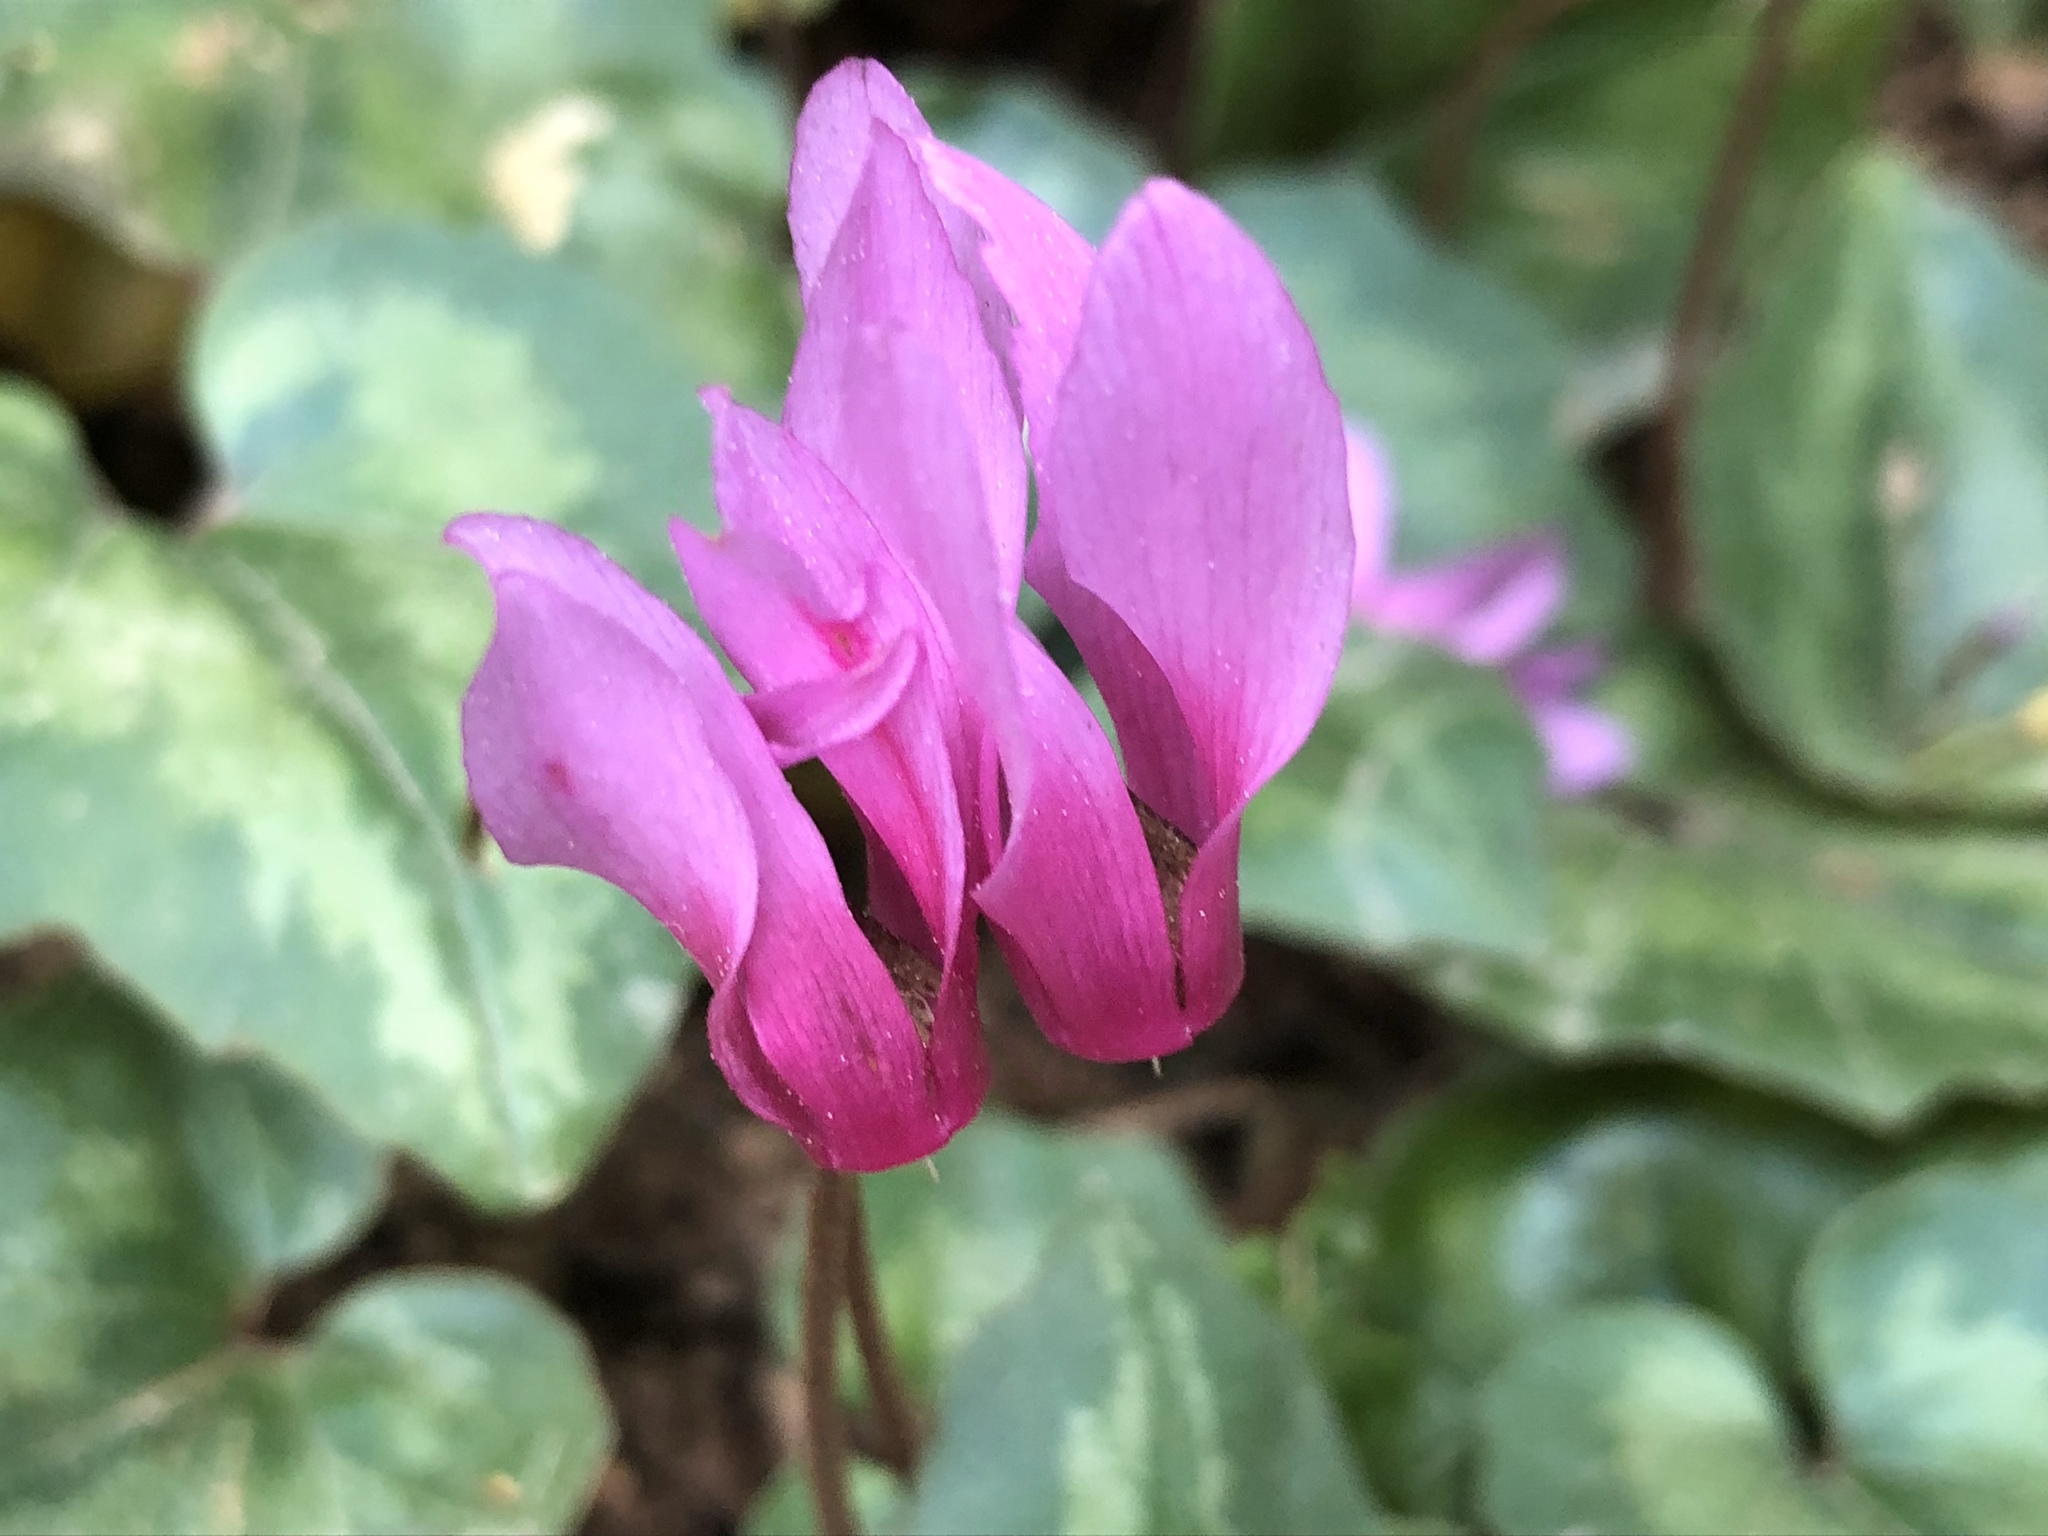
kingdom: Plantae
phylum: Tracheophyta
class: Magnoliopsida
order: Ericales
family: Primulaceae
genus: Cyclamen
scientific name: Cyclamen repandum
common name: Spring sowbread
